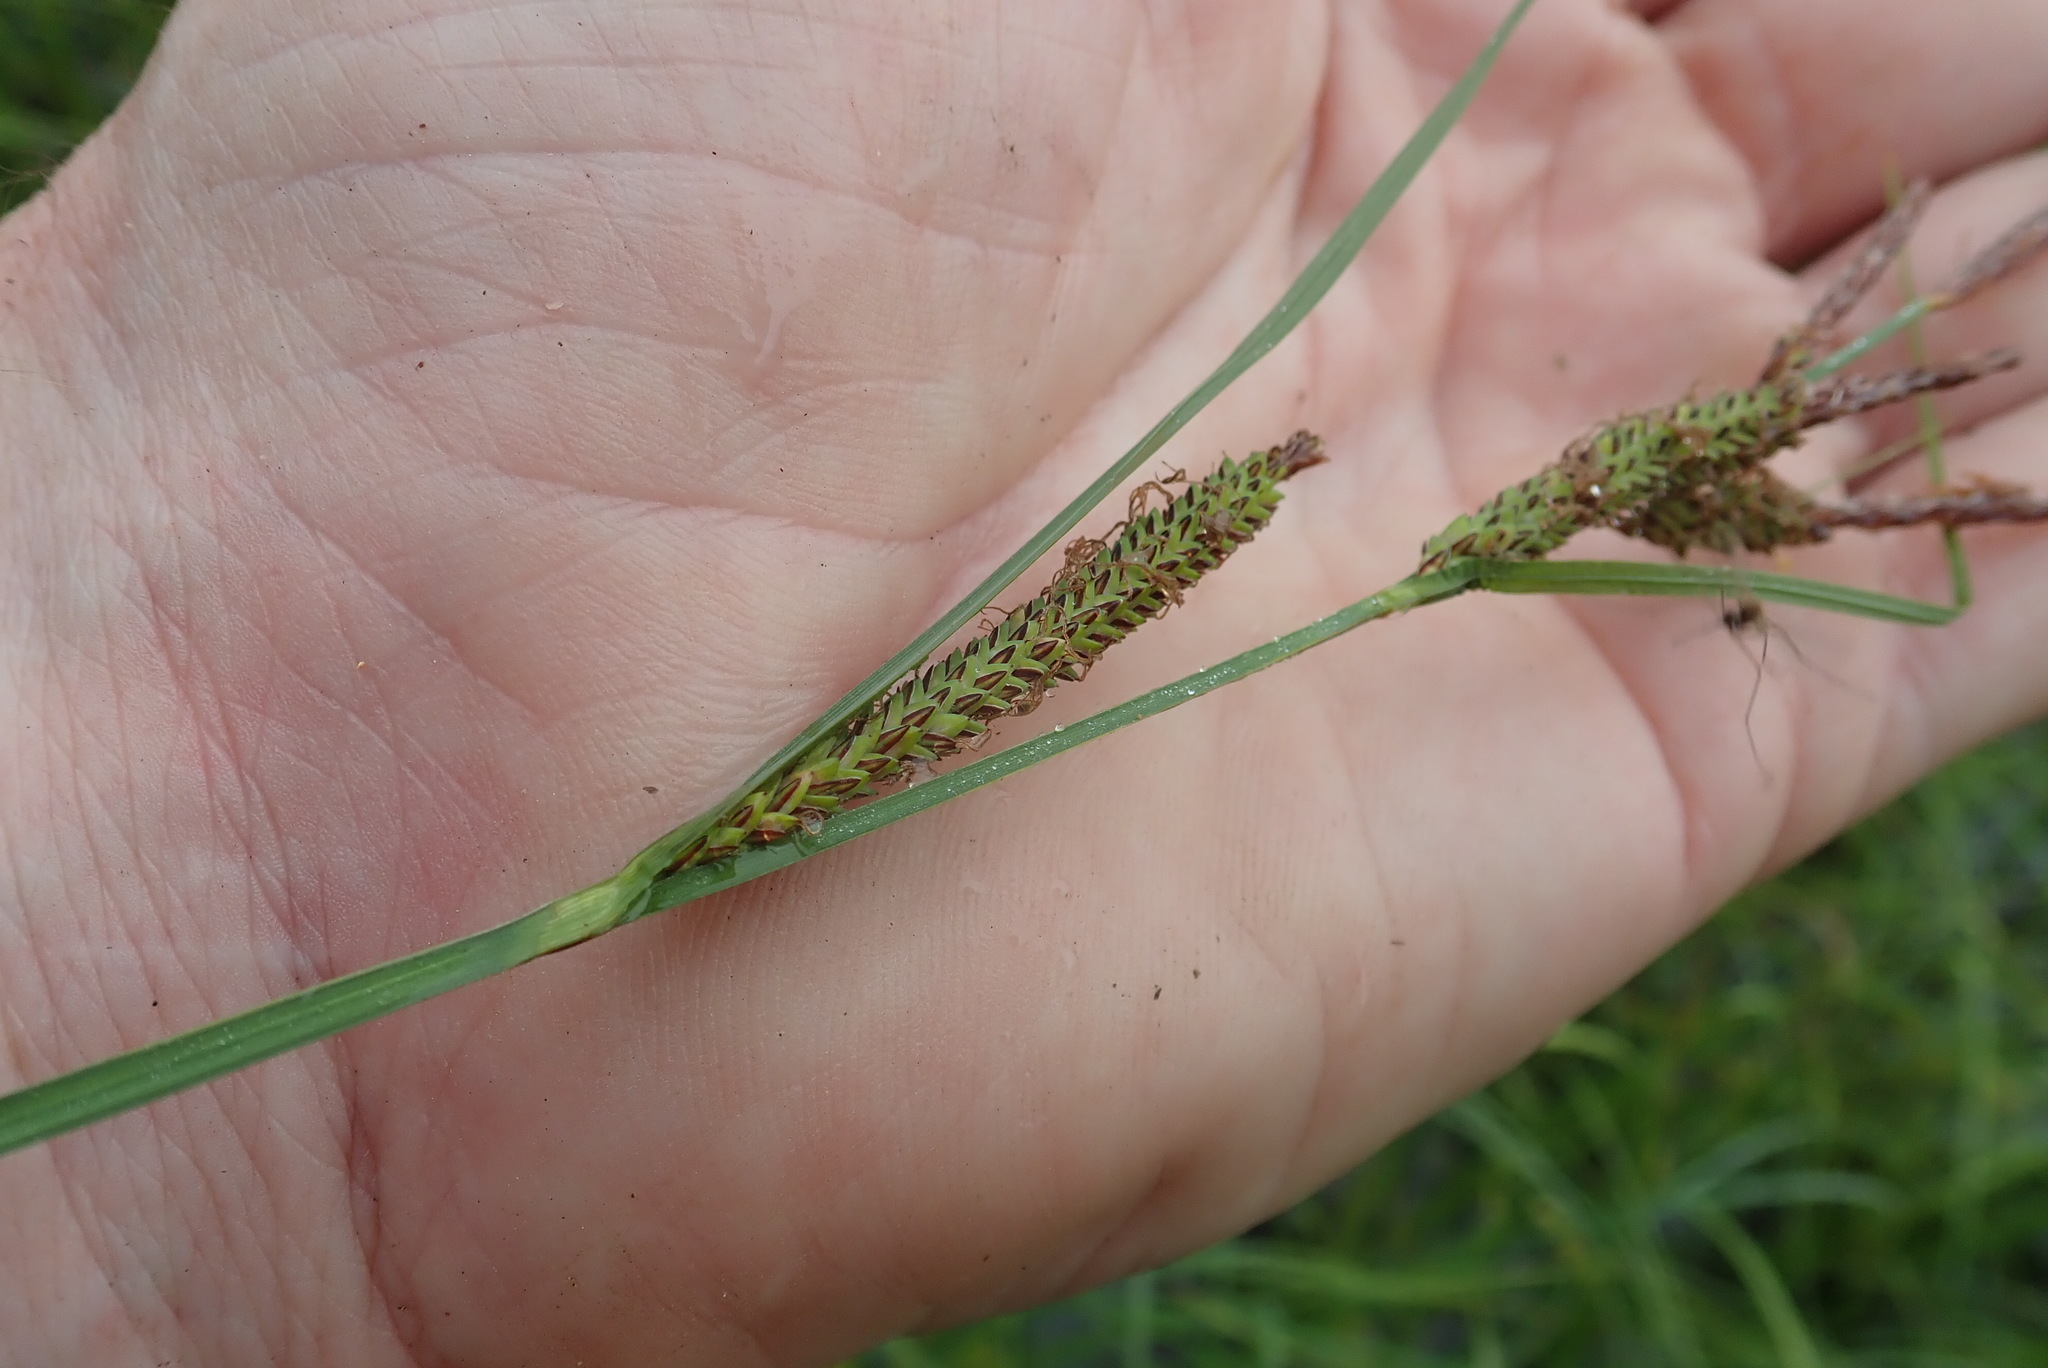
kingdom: Plantae
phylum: Tracheophyta
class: Liliopsida
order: Poales
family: Cyperaceae
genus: Carex
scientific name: Carex aquatilis
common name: Water sedge
